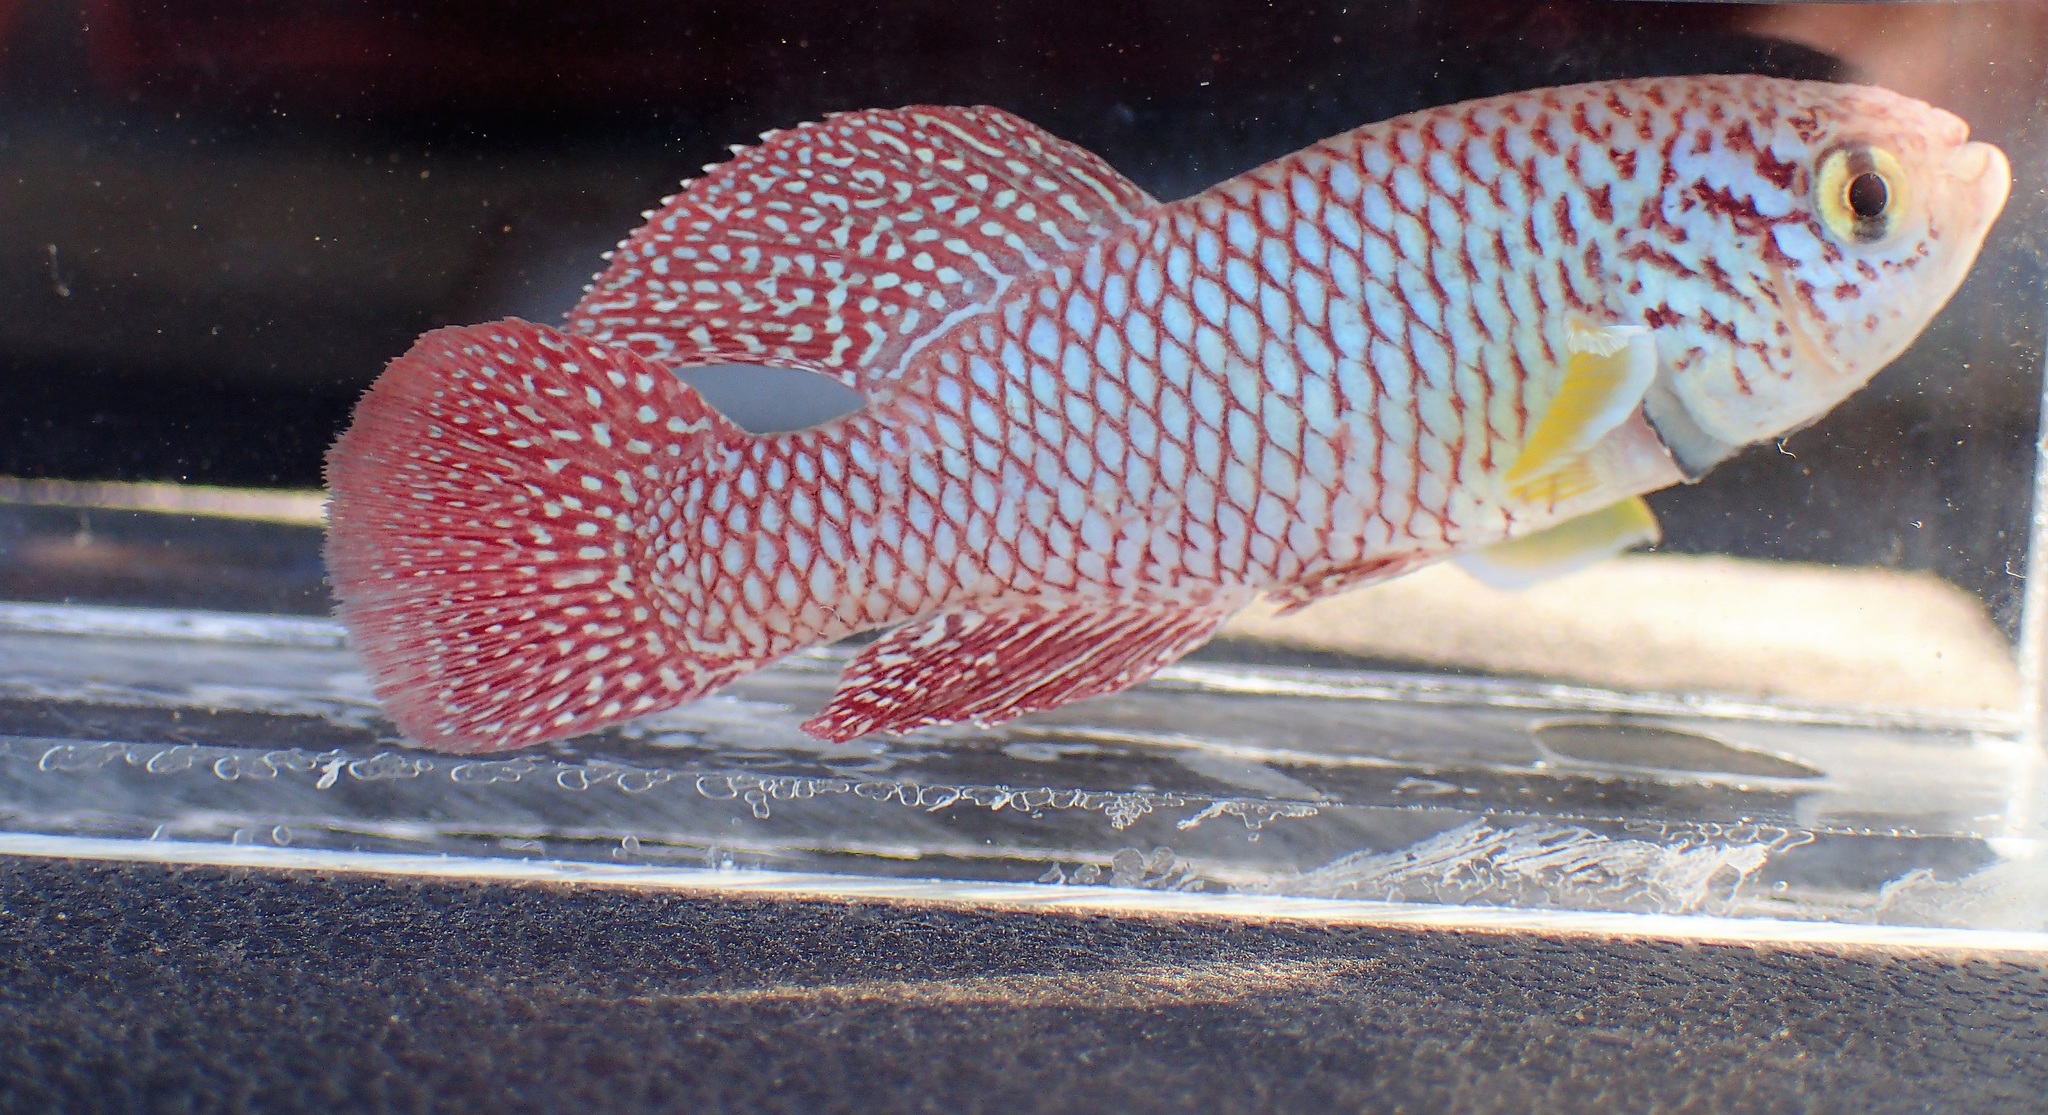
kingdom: Animalia
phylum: Chordata
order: Cyprinodontiformes
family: Nothobranchiidae
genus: Nothobranchius
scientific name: Nothobranchius kadleci
